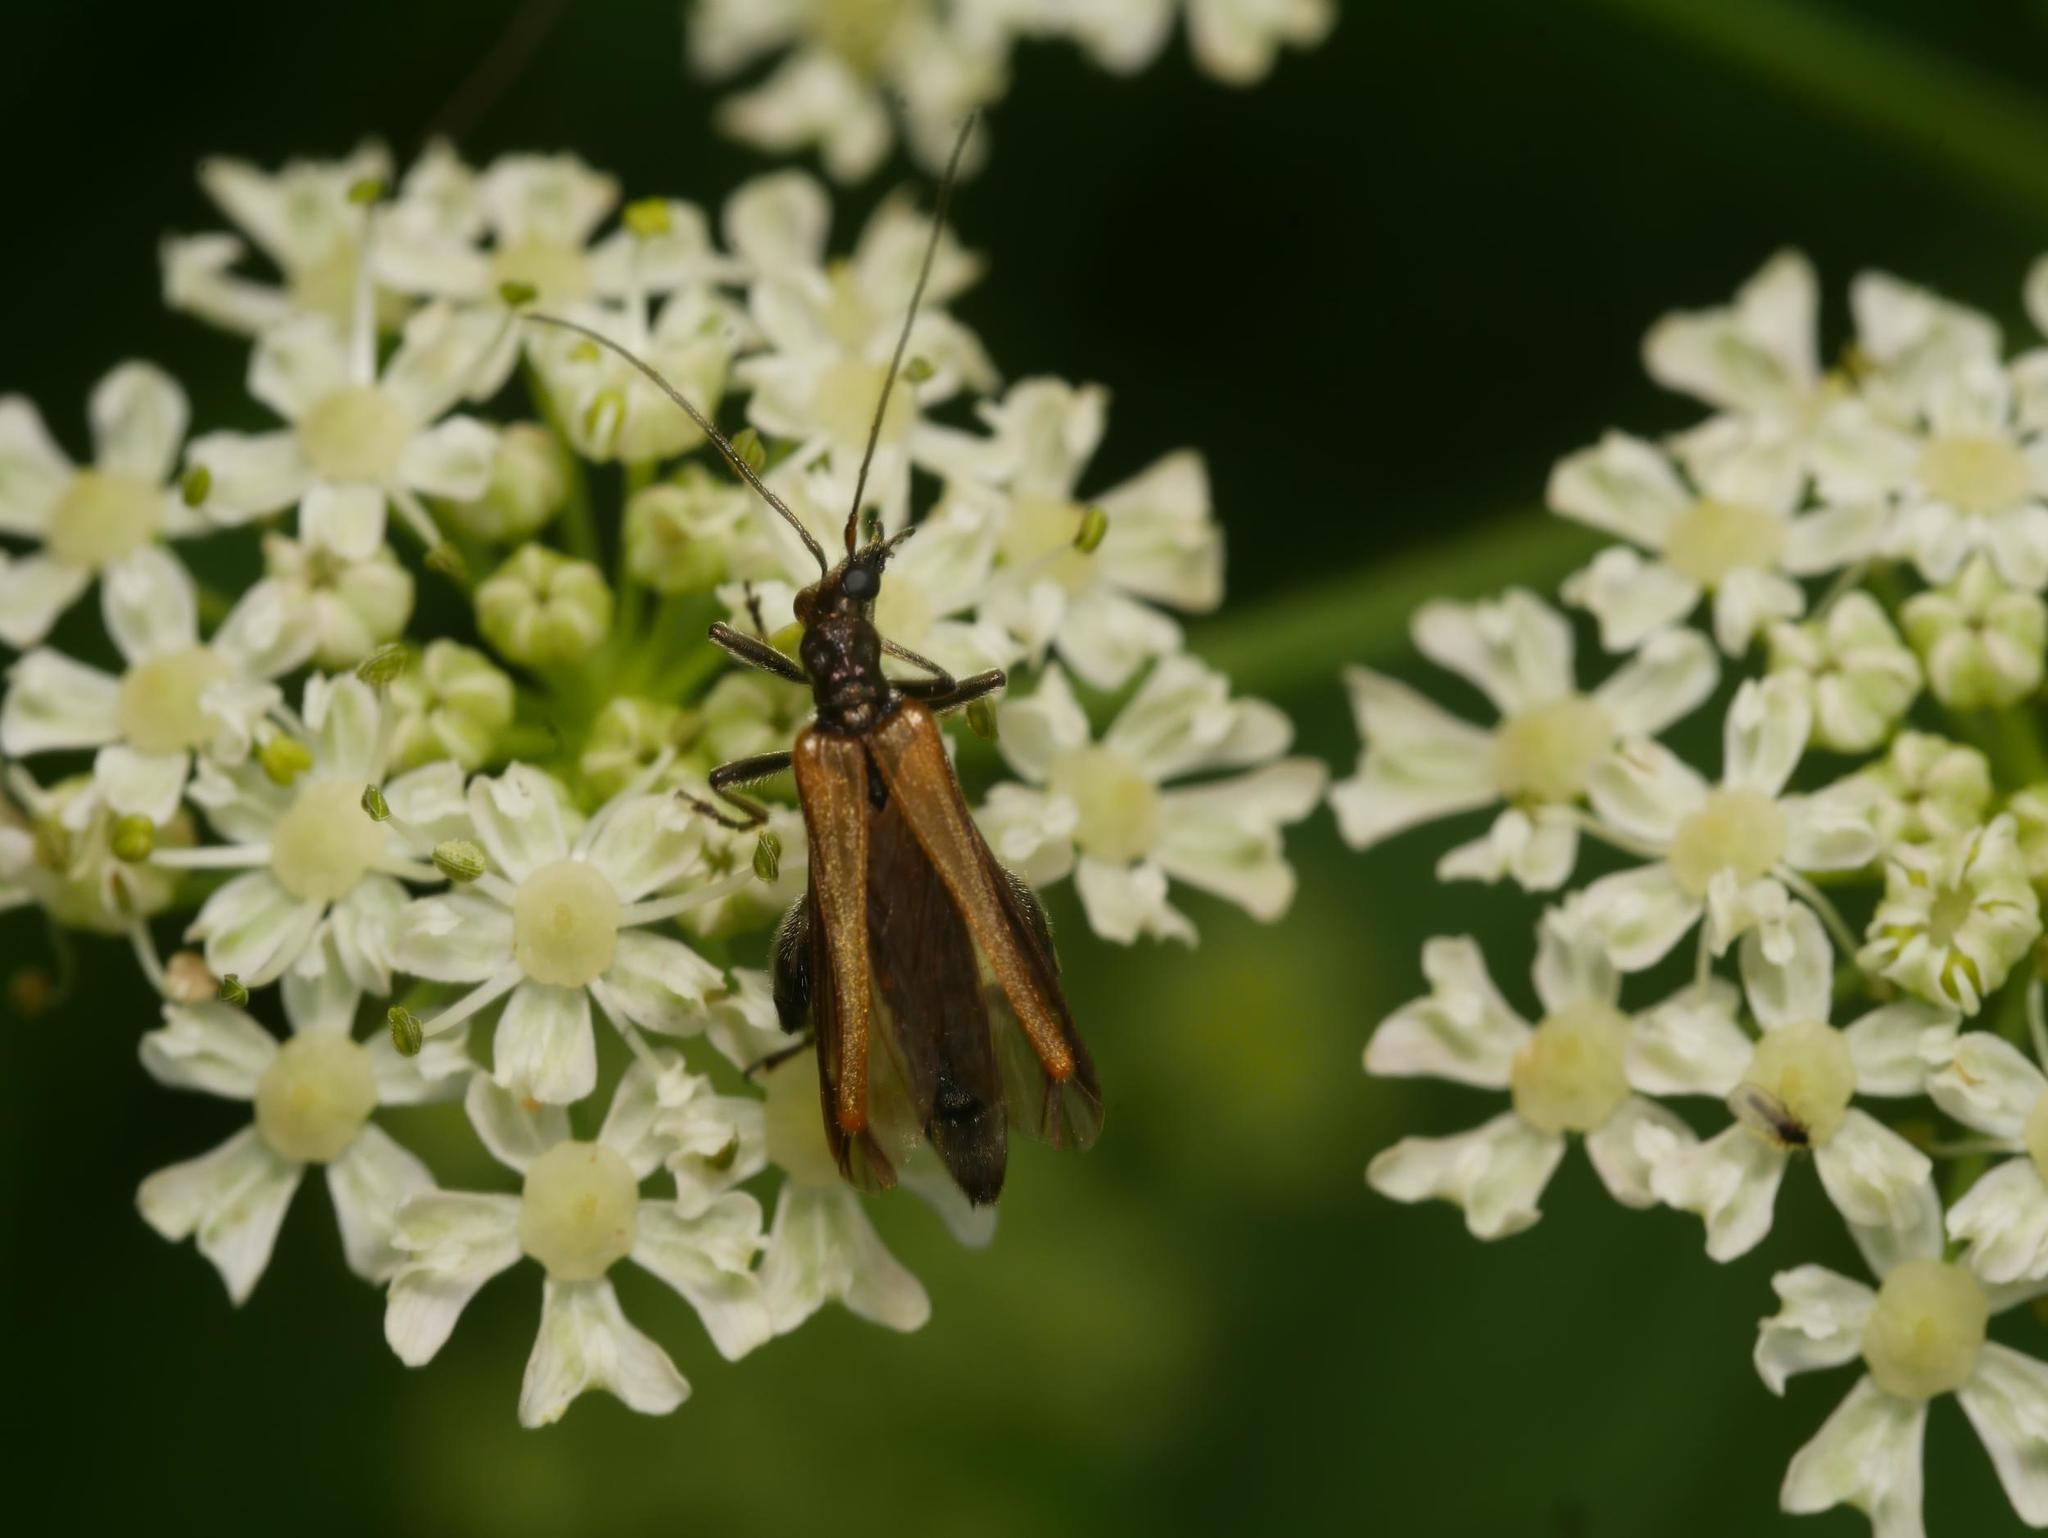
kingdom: Animalia
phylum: Arthropoda
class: Insecta
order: Coleoptera
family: Oedemeridae
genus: Oedemera
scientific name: Oedemera femorata
